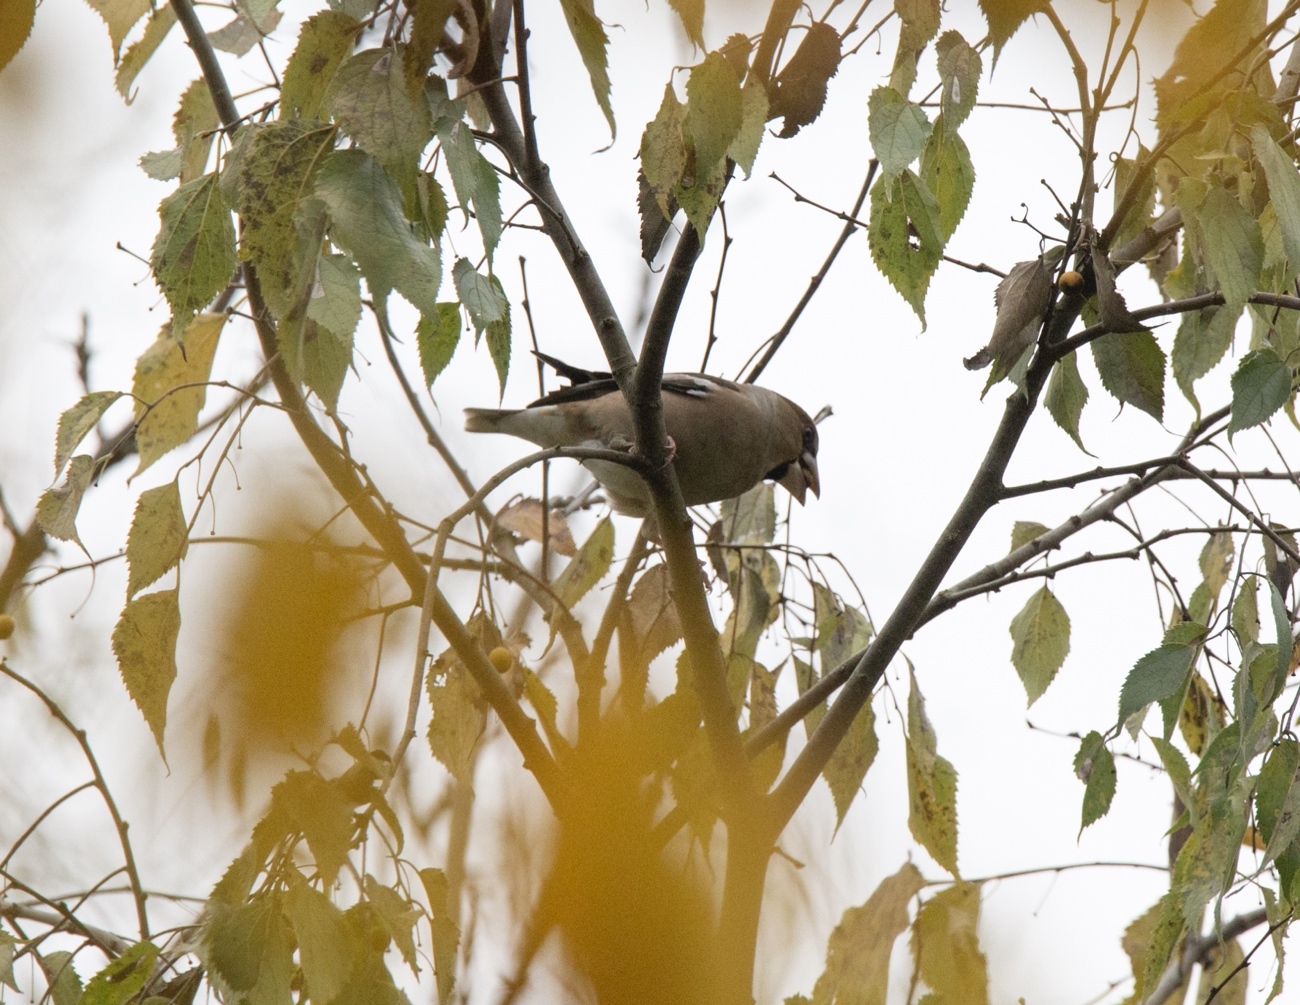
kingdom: Animalia
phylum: Chordata
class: Aves
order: Passeriformes
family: Fringillidae
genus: Coccothraustes
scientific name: Coccothraustes coccothraustes
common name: Hawfinch
